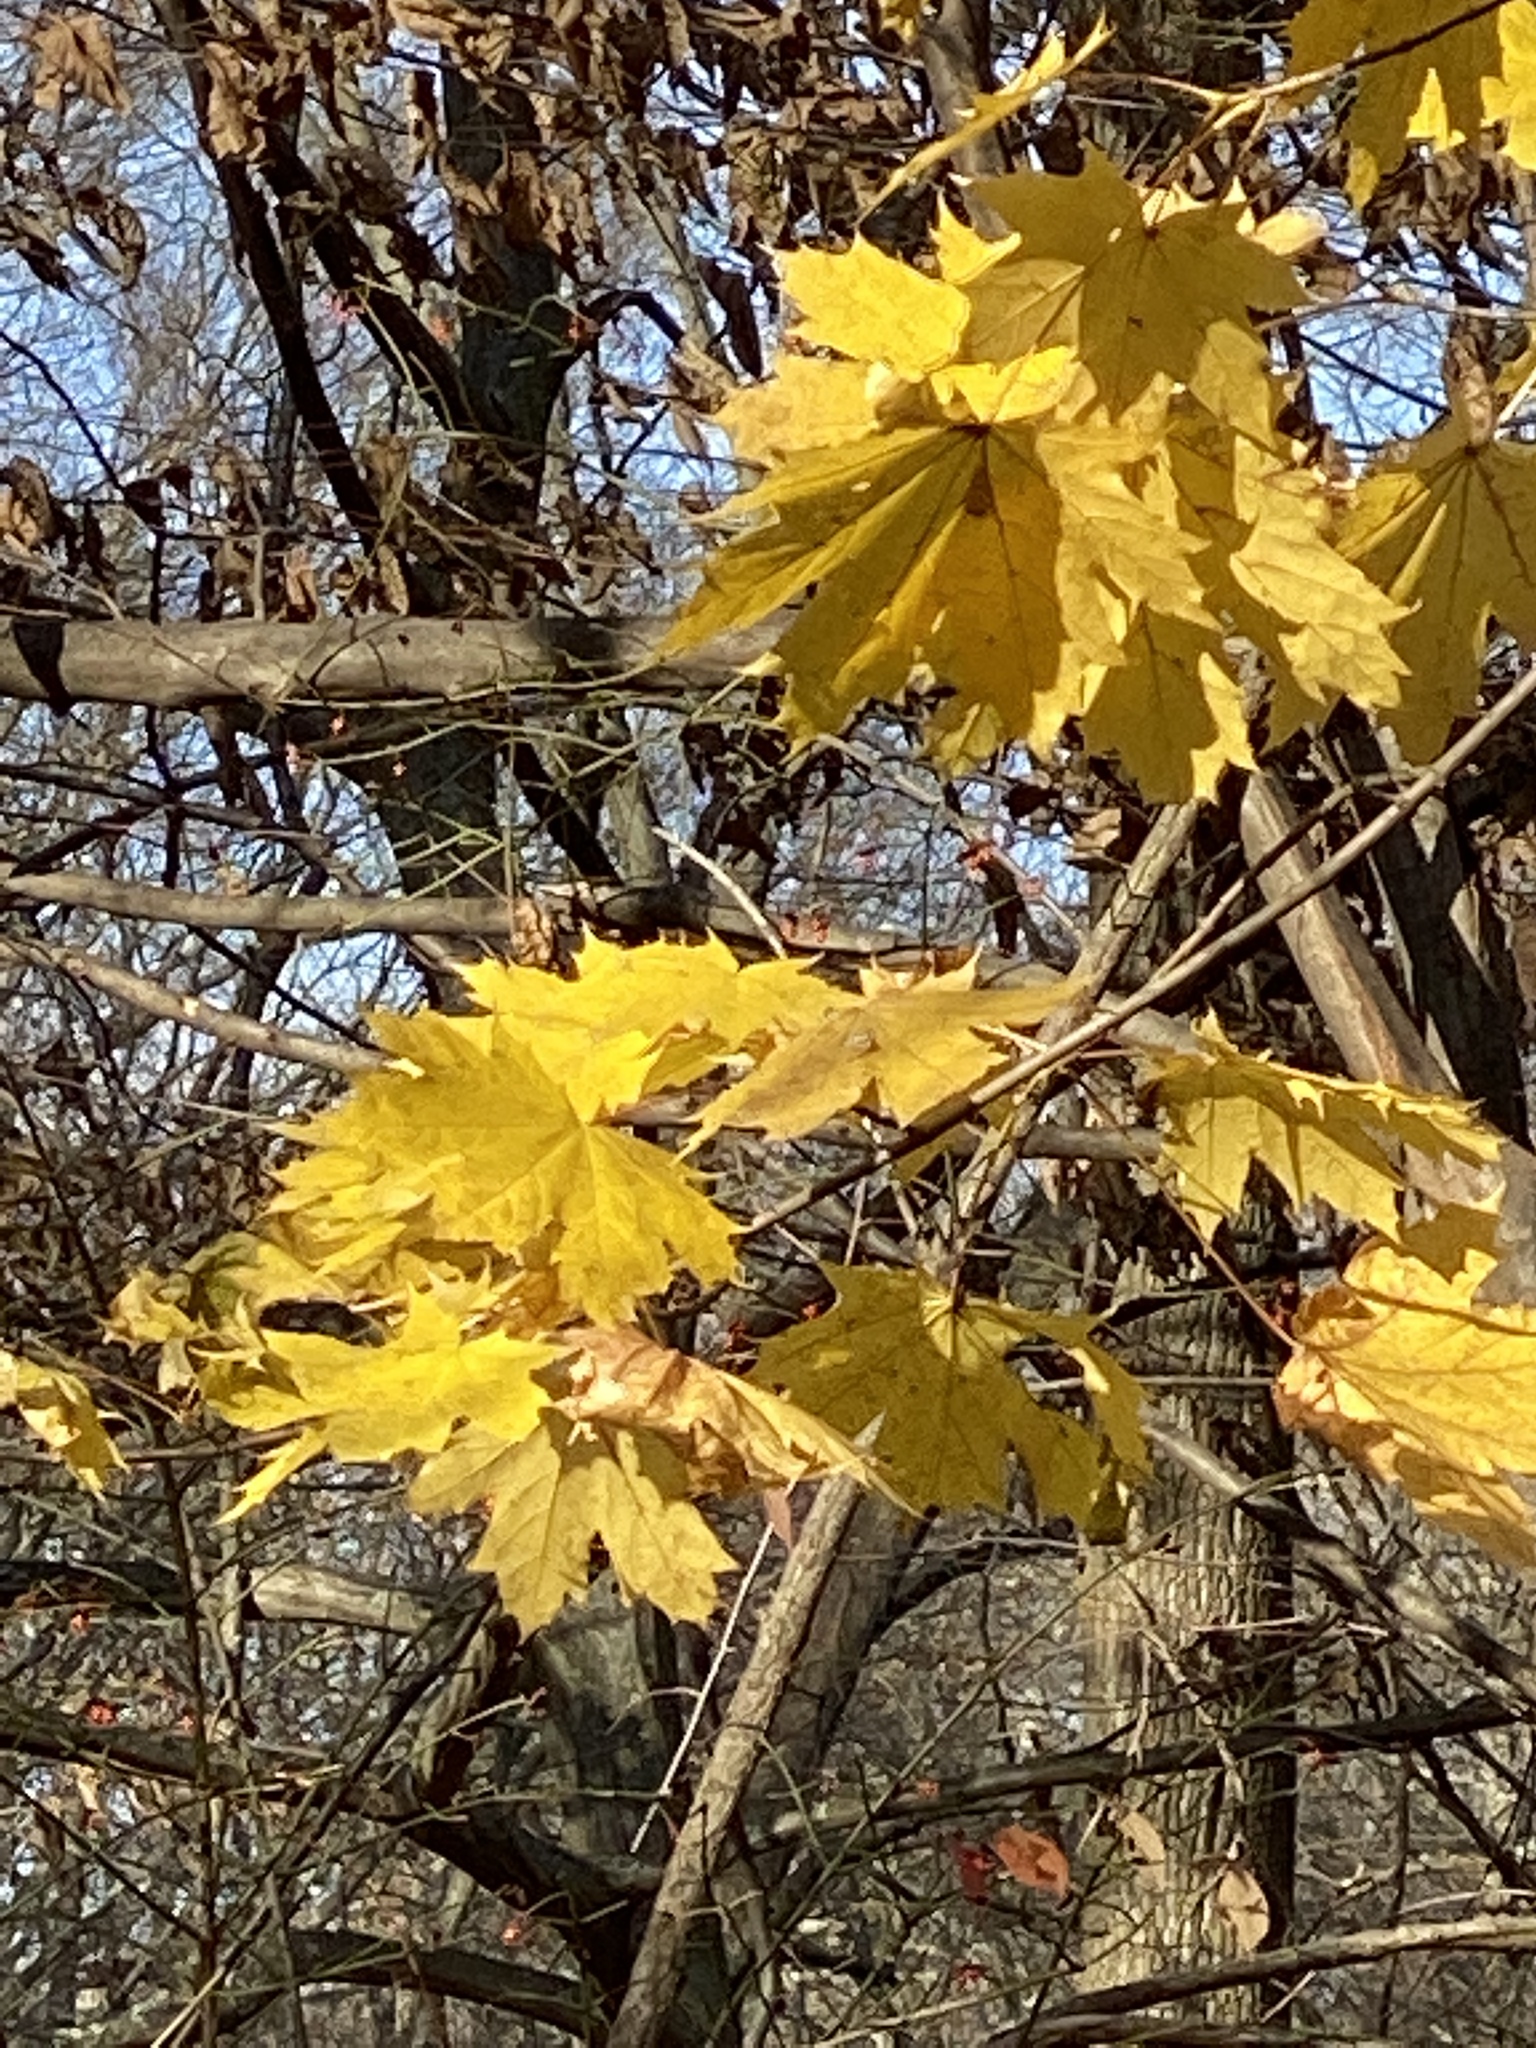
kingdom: Plantae
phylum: Tracheophyta
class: Magnoliopsida
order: Sapindales
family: Sapindaceae
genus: Acer
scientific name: Acer platanoides
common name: Norway maple
